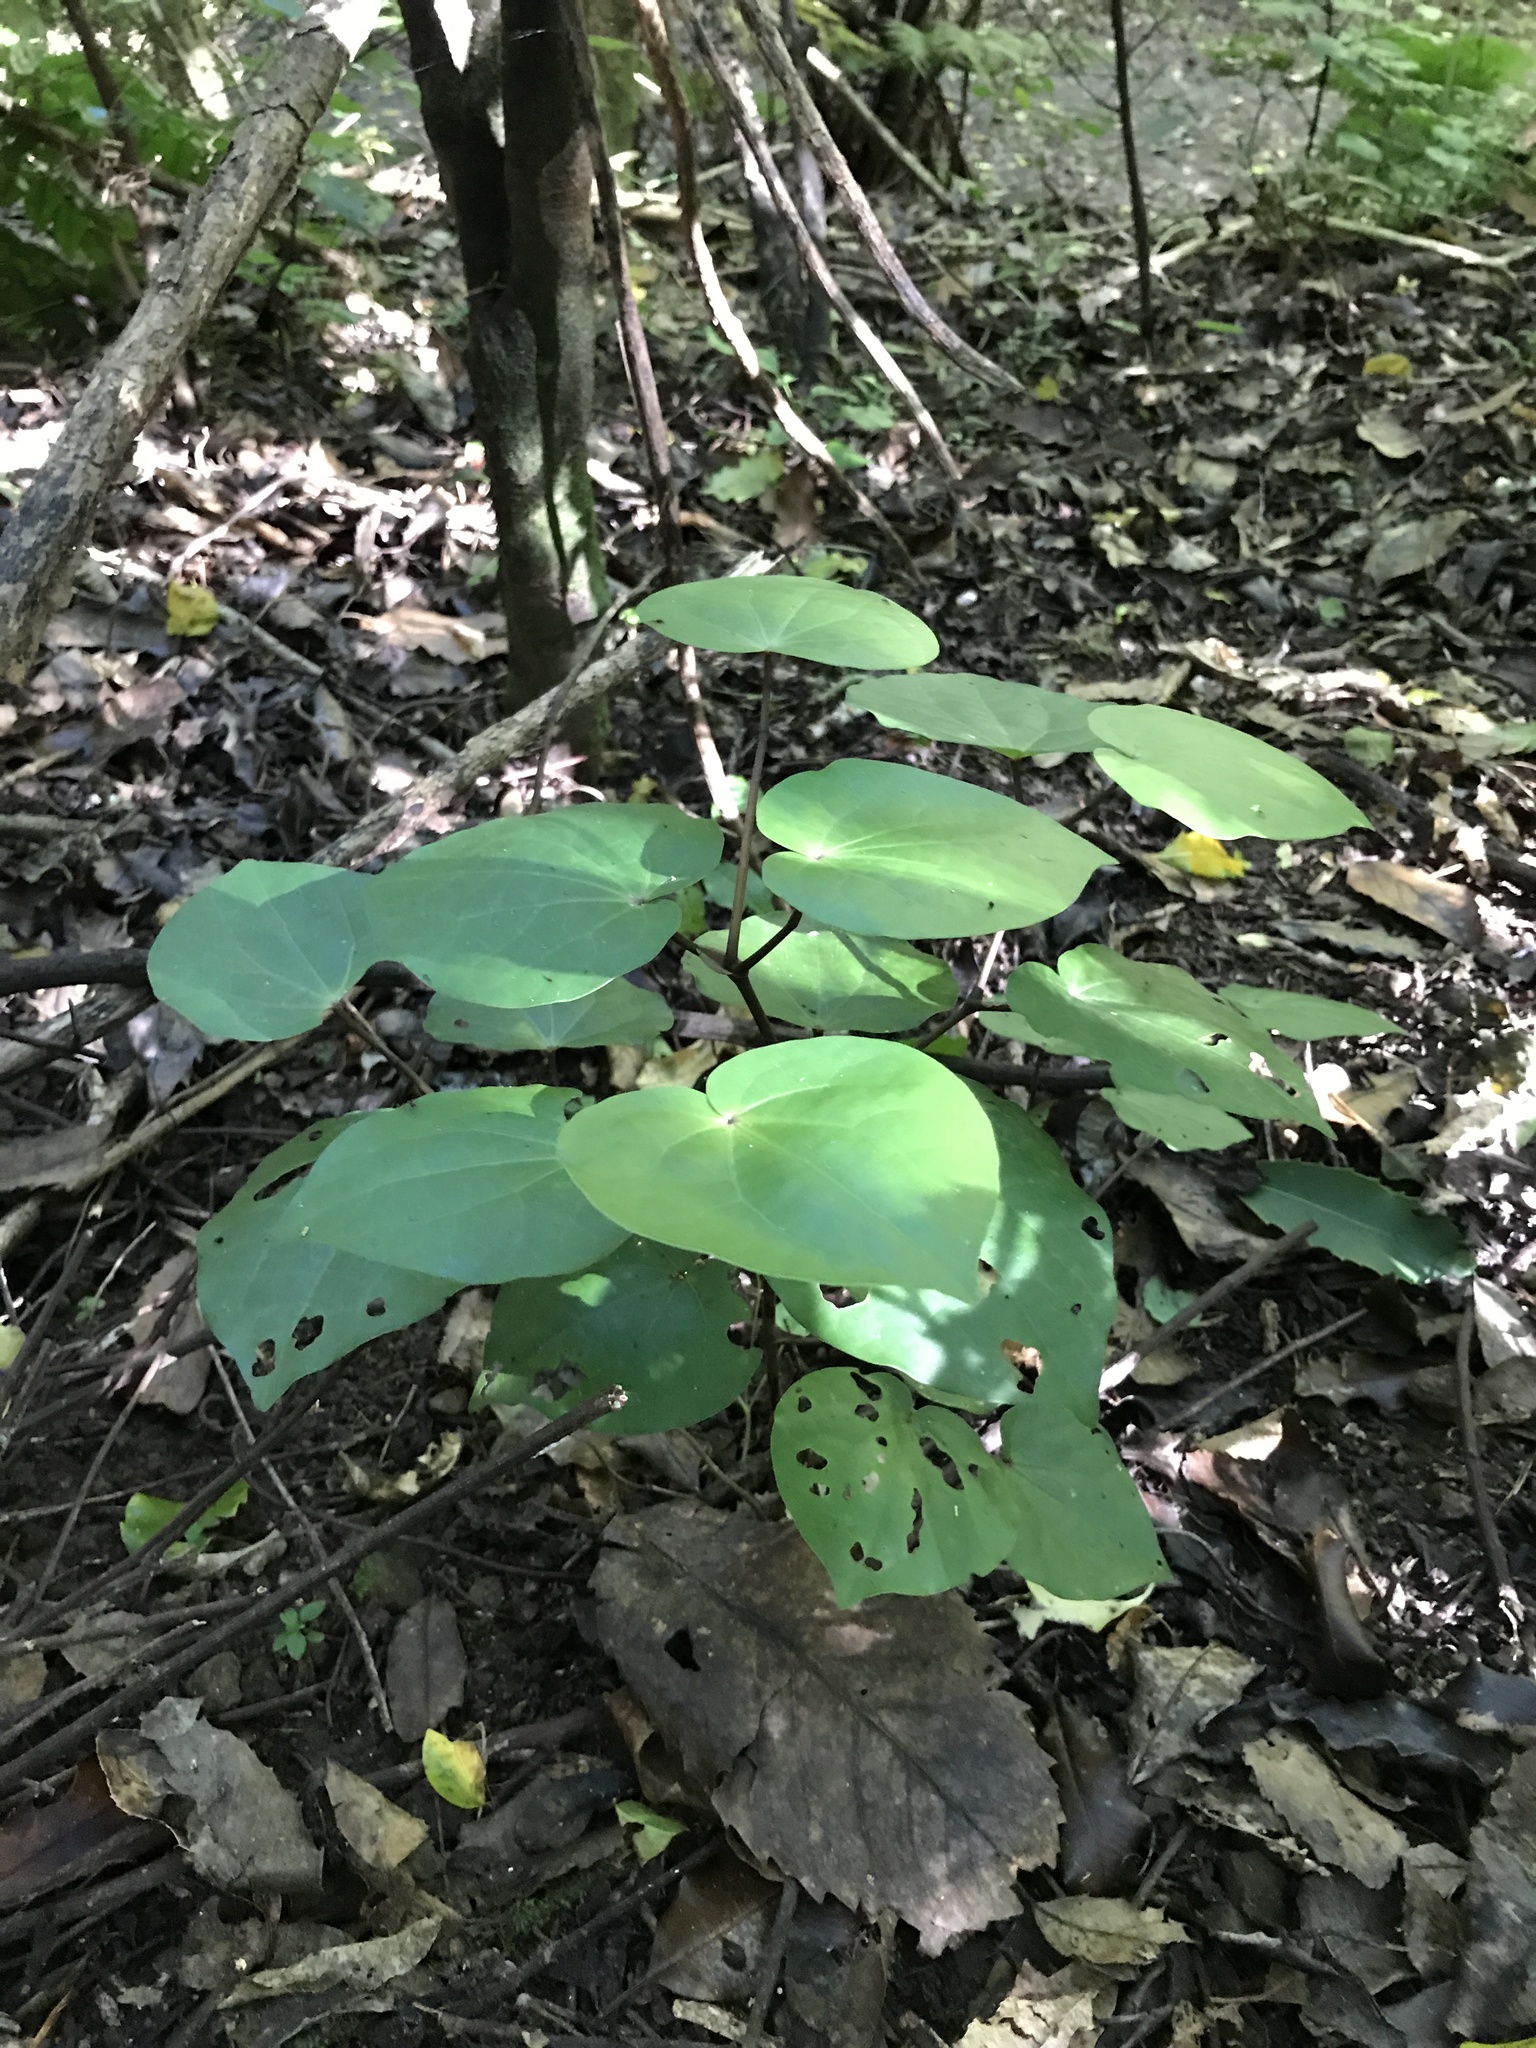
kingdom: Plantae
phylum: Tracheophyta
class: Magnoliopsida
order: Piperales
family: Piperaceae
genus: Macropiper
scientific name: Macropiper excelsum
